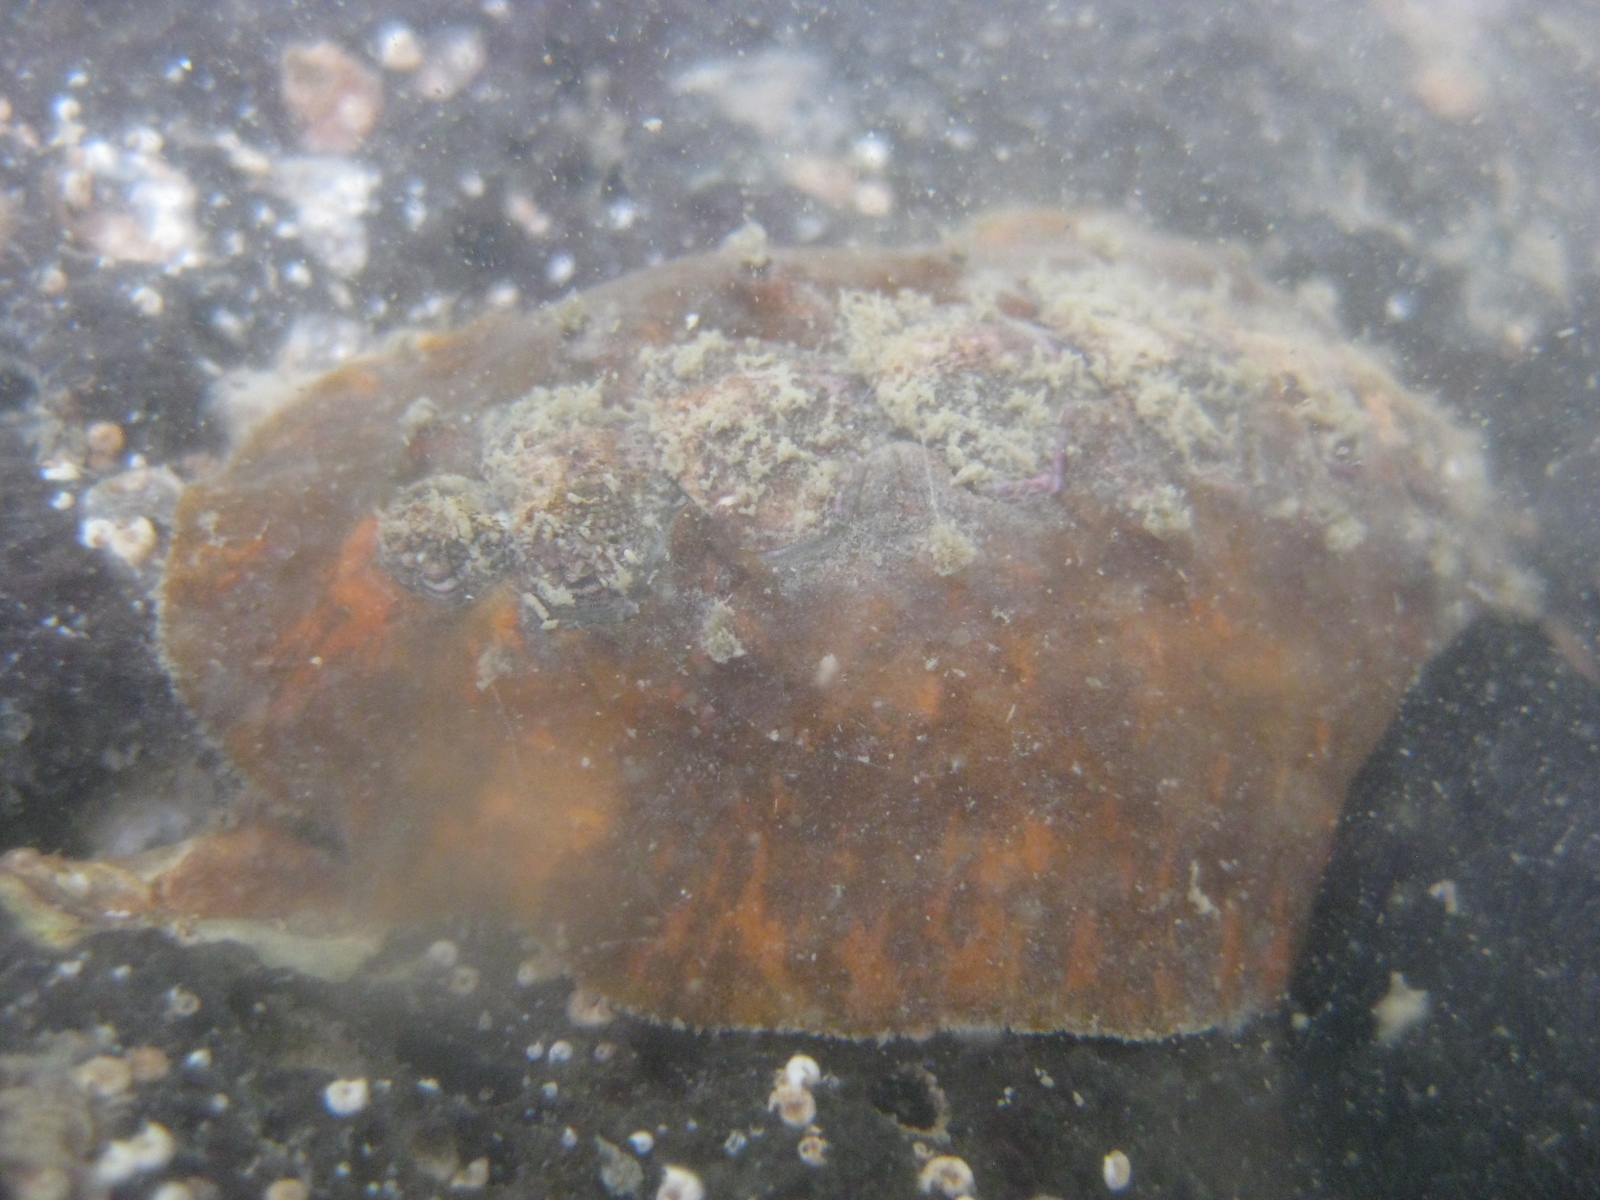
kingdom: Animalia
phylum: Mollusca
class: Polyplacophora
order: Chitonida
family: Acanthochitonidae
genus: Notoplax
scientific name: Notoplax violacea
